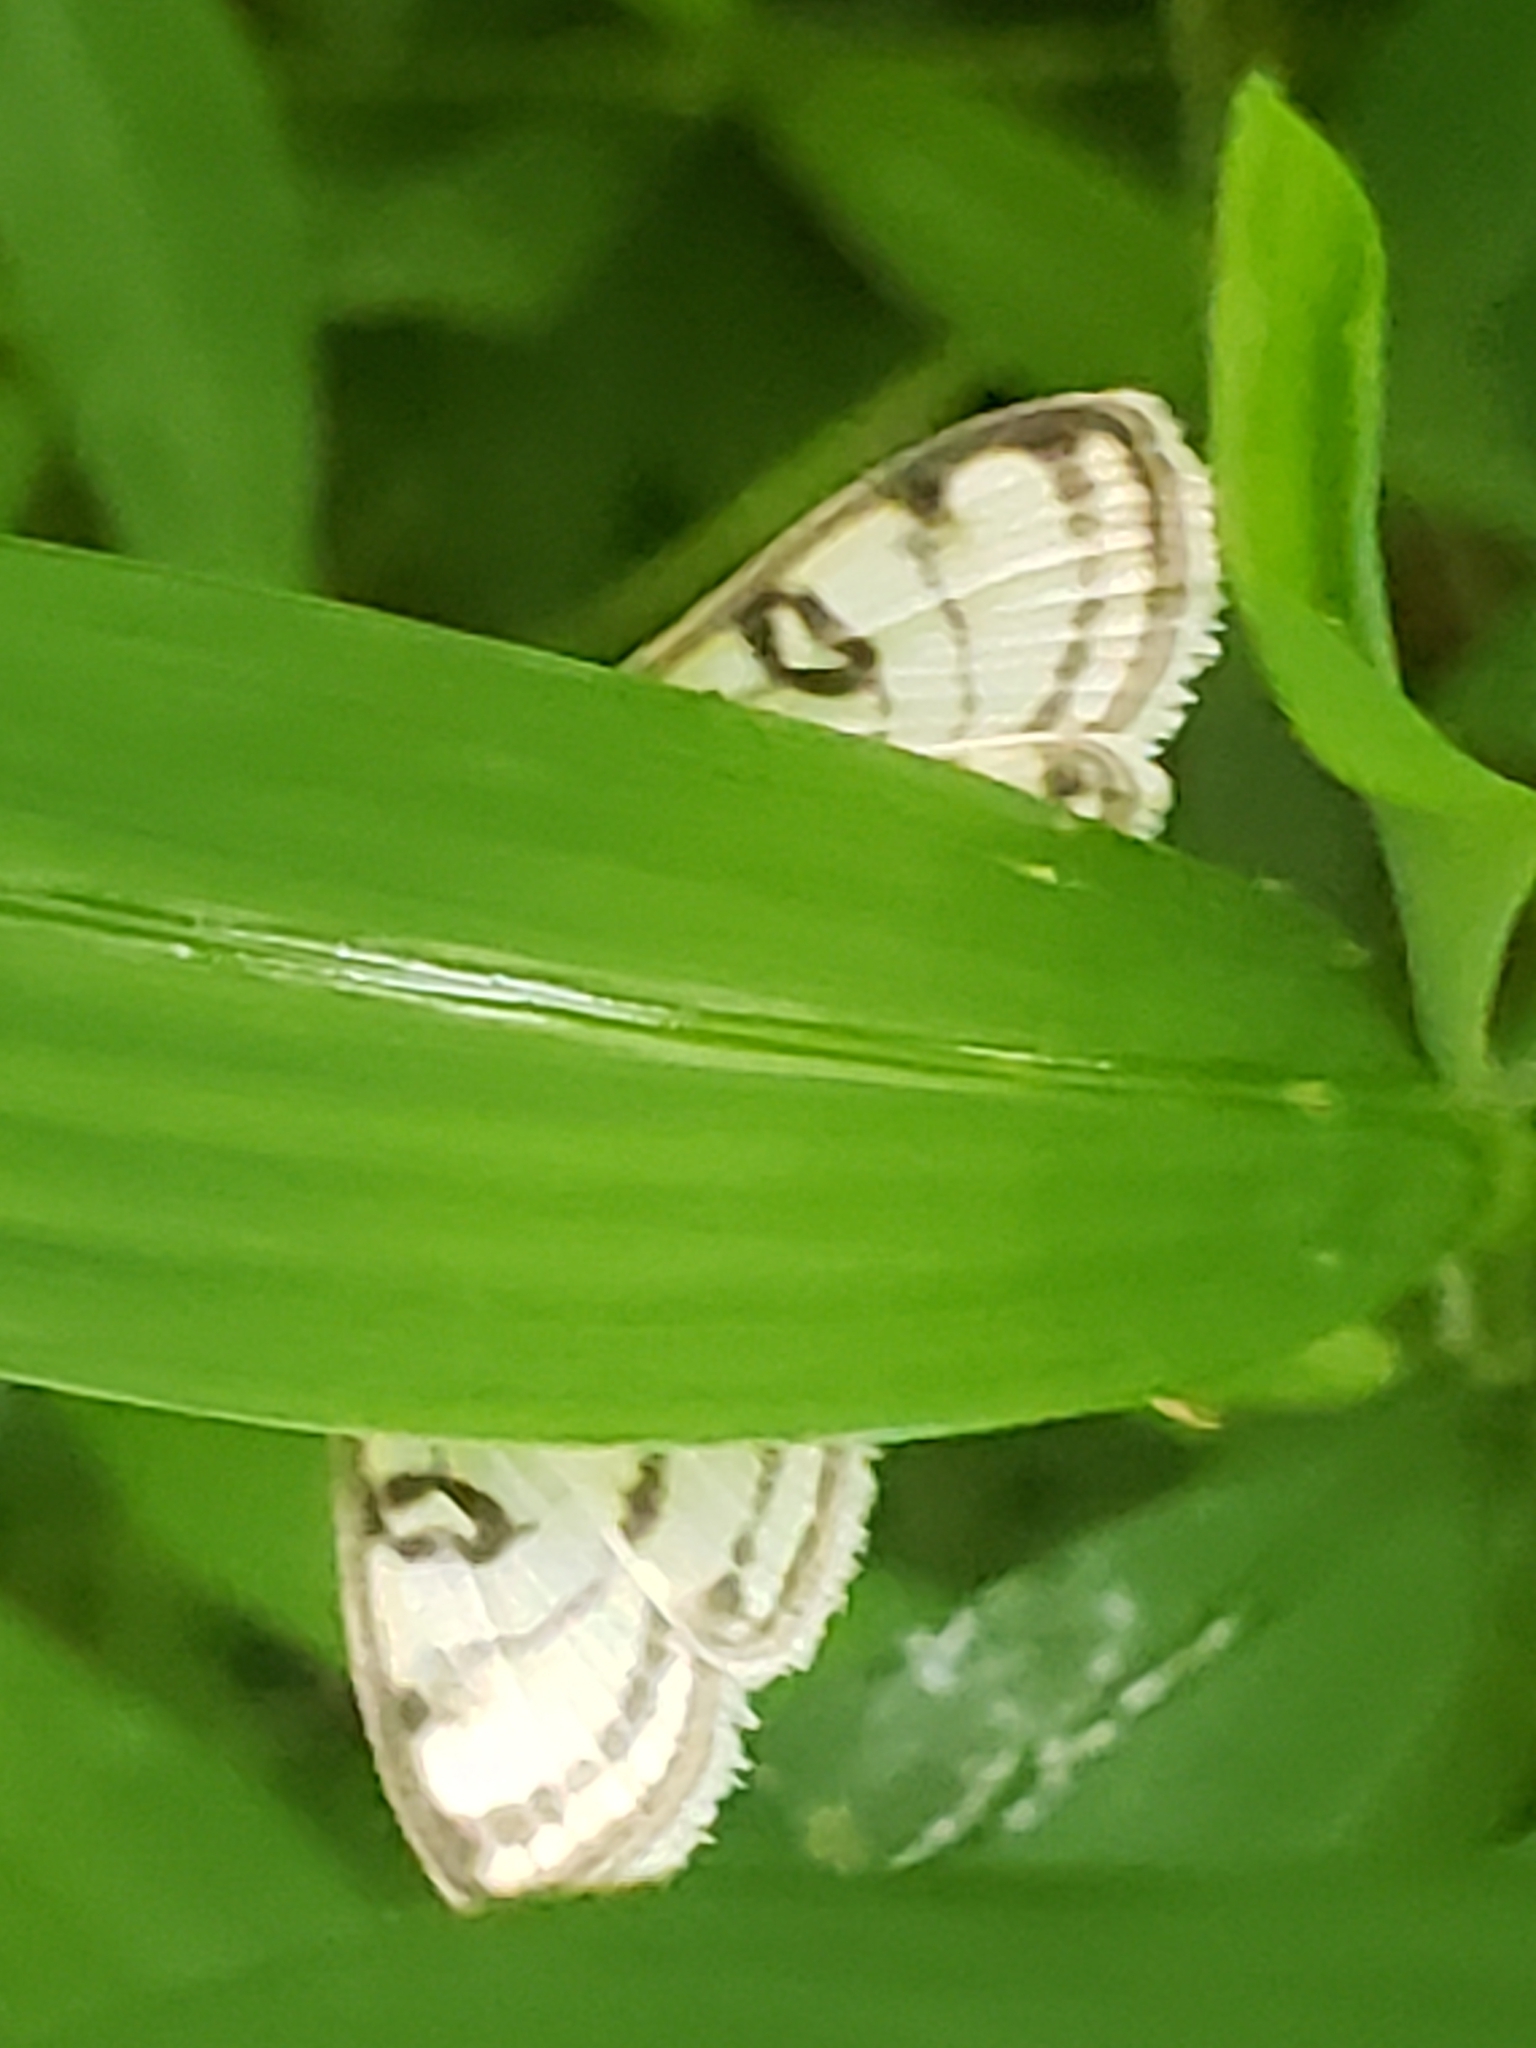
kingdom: Animalia
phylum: Arthropoda
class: Insecta
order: Lepidoptera
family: Crambidae
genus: Conchylodes
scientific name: Conchylodes ovulalis
